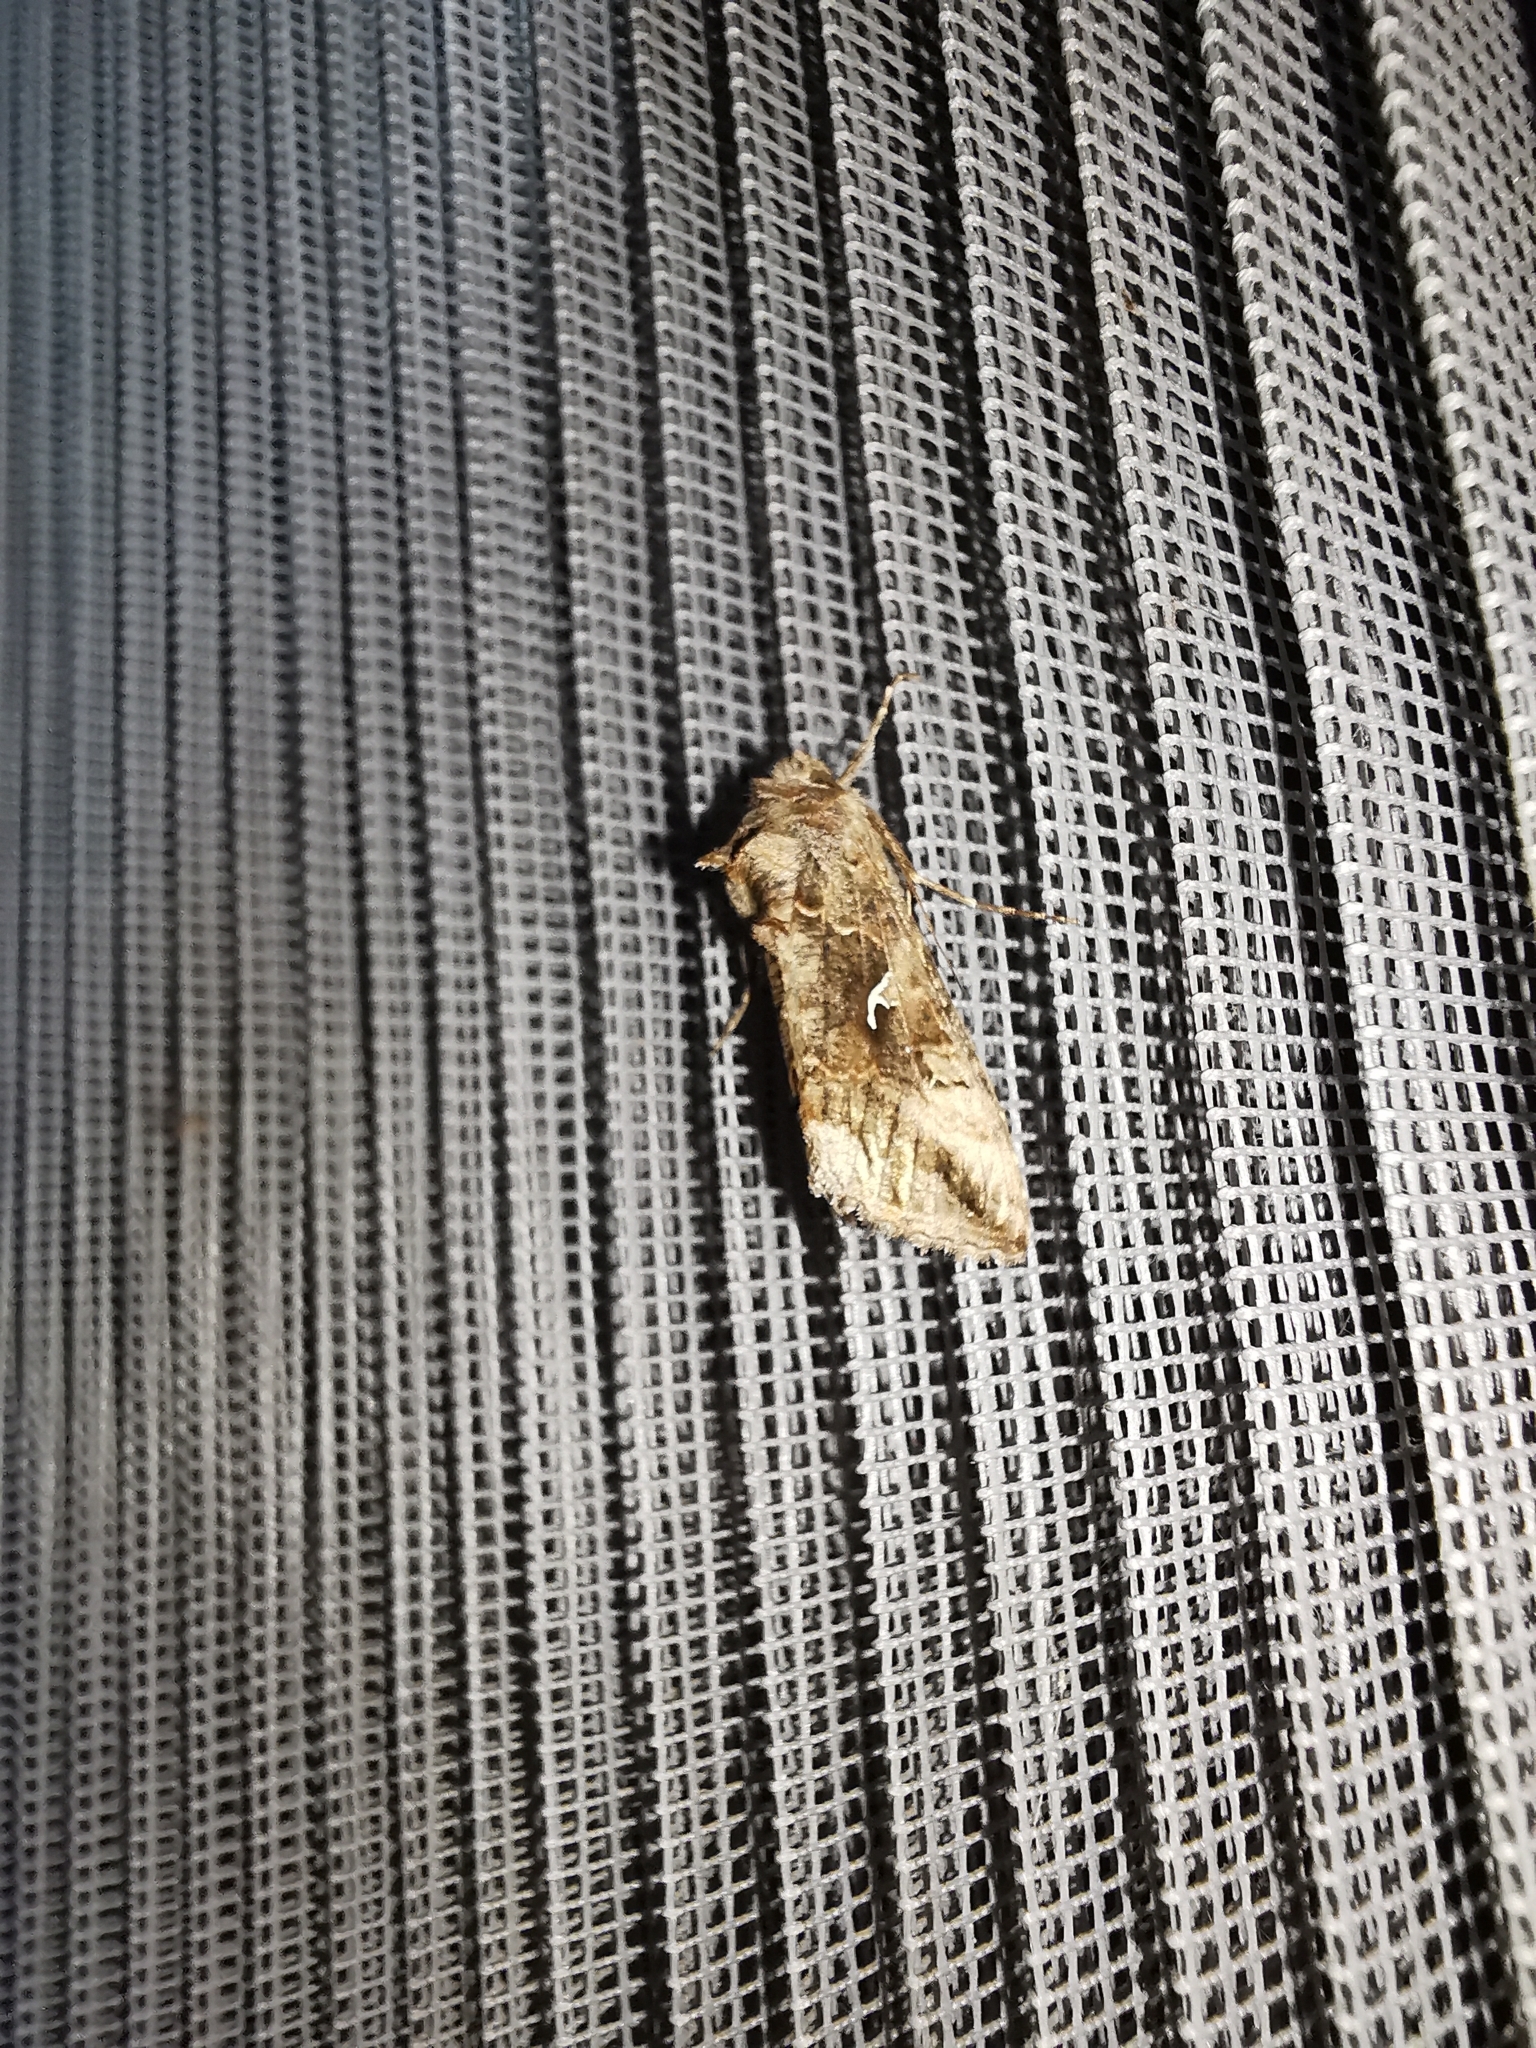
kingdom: Animalia
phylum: Arthropoda
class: Insecta
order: Lepidoptera
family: Noctuidae
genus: Autographa
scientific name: Autographa gamma
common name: Silver y
